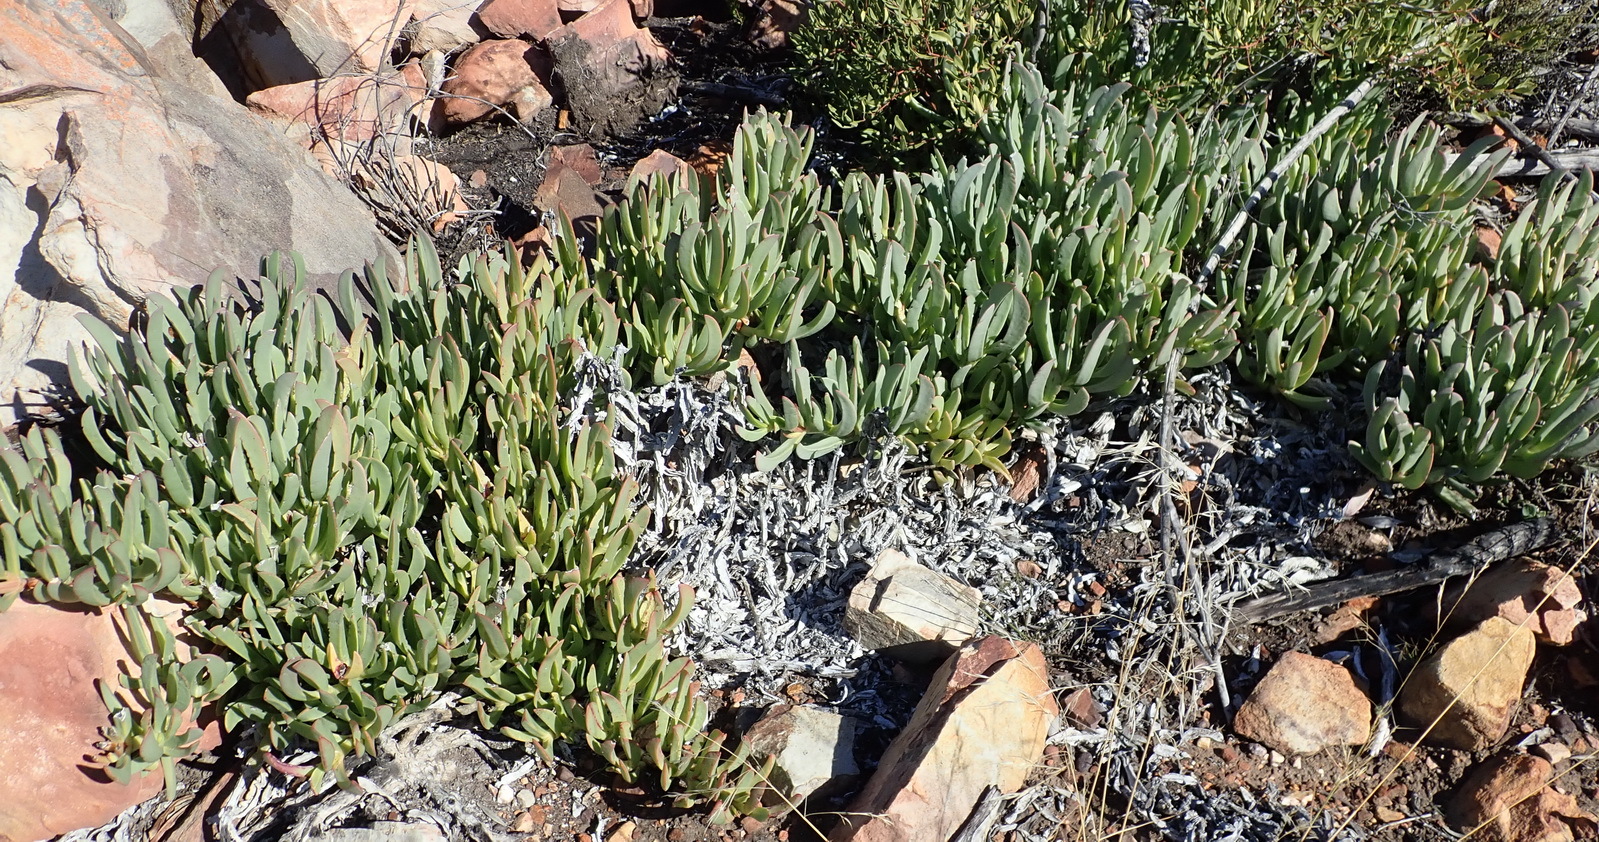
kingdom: Plantae
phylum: Tracheophyta
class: Magnoliopsida
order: Caryophyllales
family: Aizoaceae
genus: Carpobrotus
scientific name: Carpobrotus mellei
